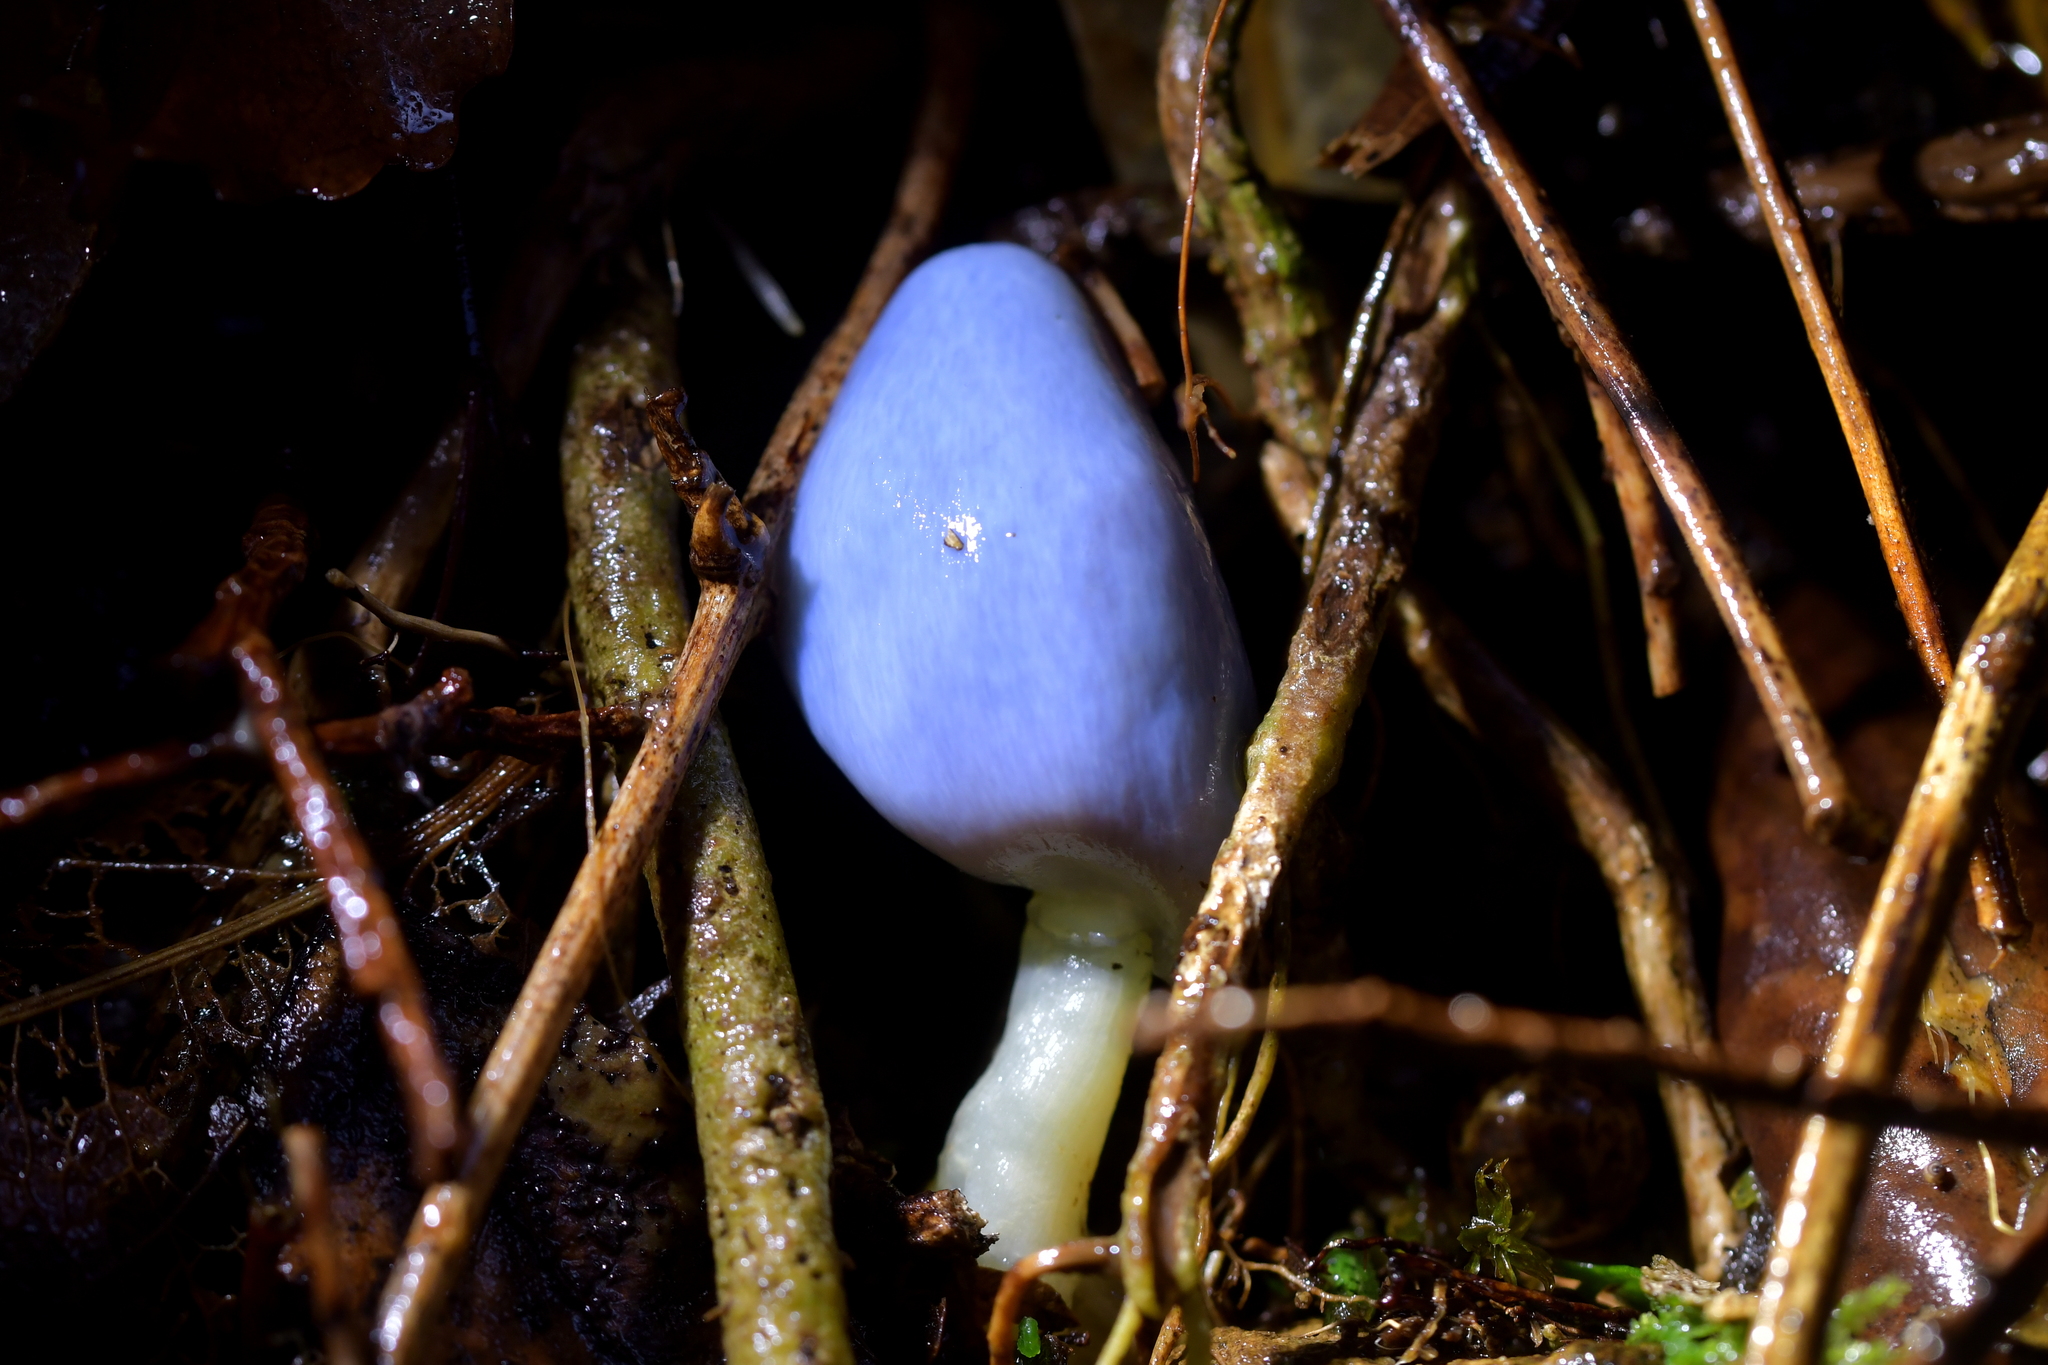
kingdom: Fungi
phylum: Basidiomycota
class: Agaricomycetes
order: Agaricales
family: Agaricaceae
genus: Clavogaster
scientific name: Clavogaster virescens
